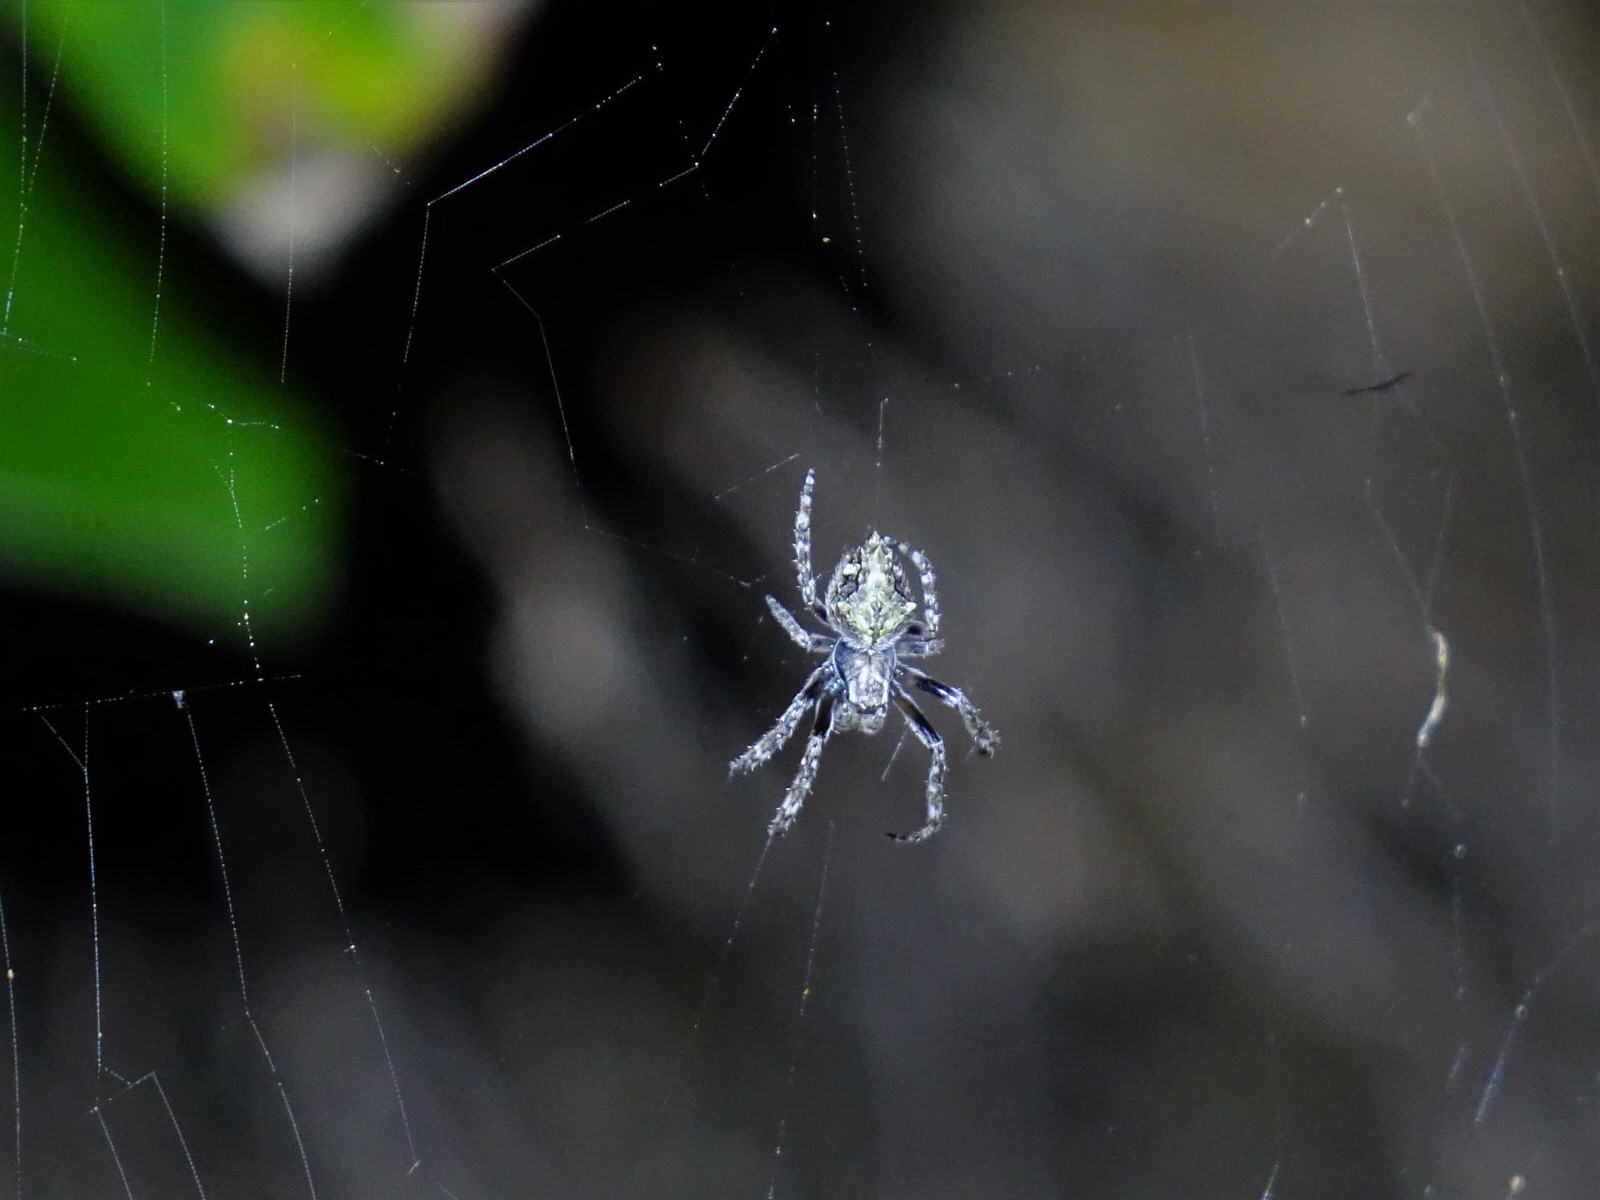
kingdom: Animalia
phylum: Arthropoda
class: Arachnida
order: Araneae
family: Araneidae
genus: Eriophora
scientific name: Eriophora pustulosa
